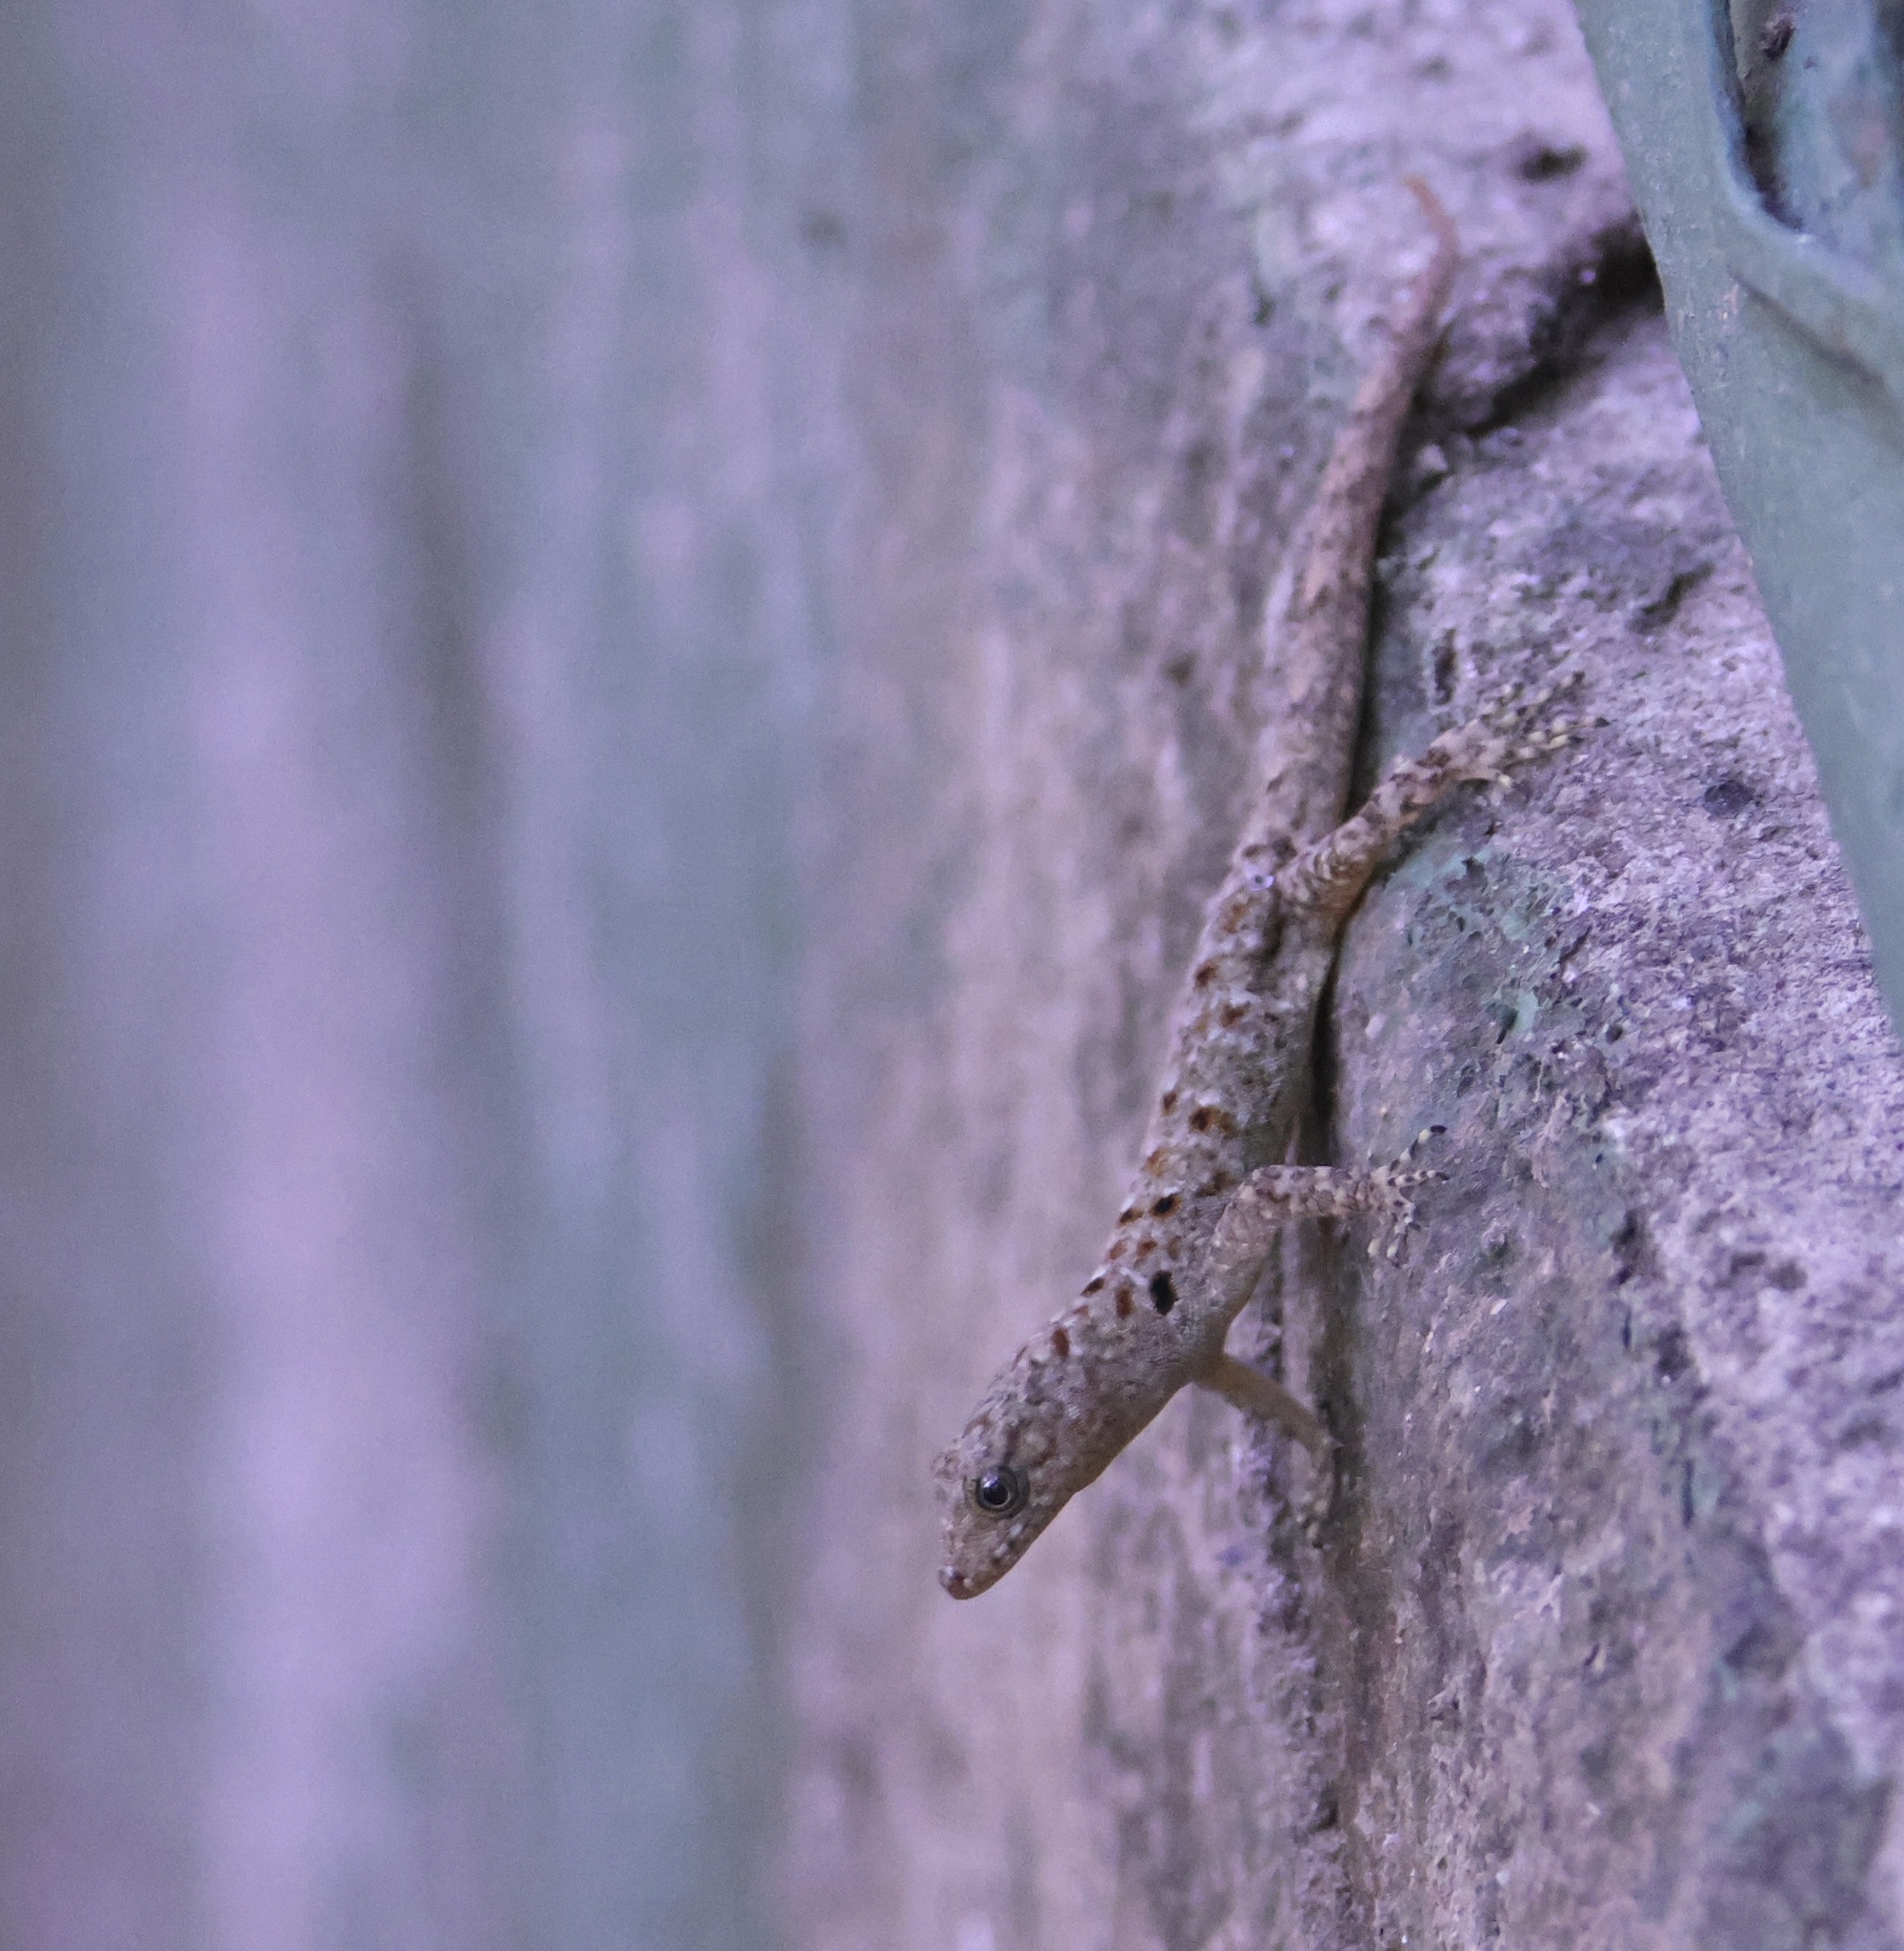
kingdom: Animalia
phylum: Chordata
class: Squamata
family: Sphaerodactylidae
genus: Gonatodes
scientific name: Gonatodes albogularis
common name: Yellow-headed gecko
